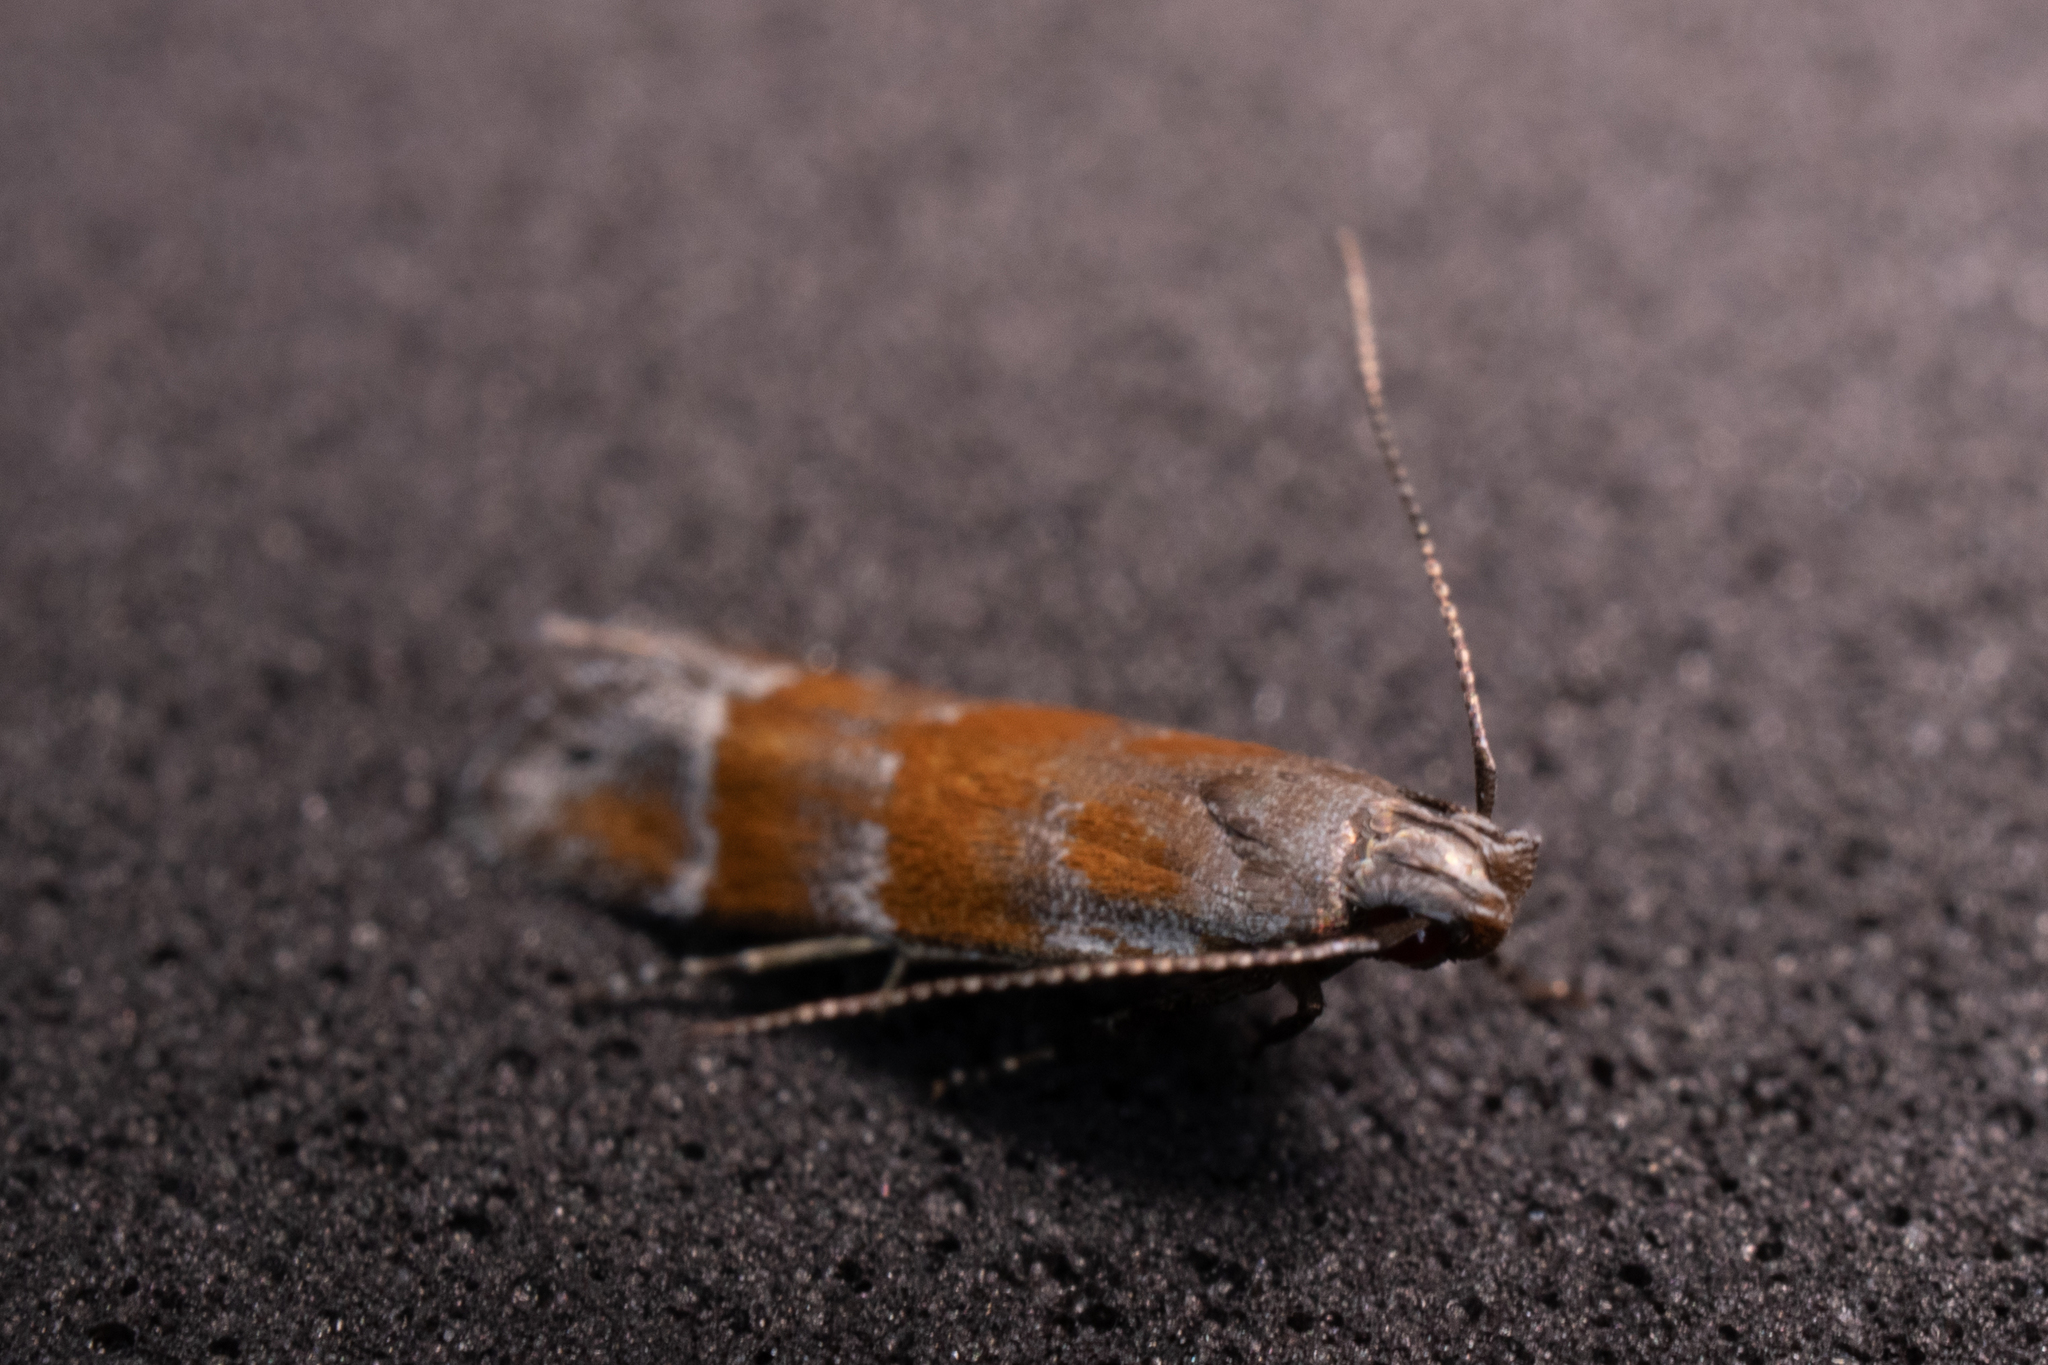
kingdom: Animalia
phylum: Arthropoda
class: Insecta
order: Lepidoptera
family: Gelechiidae
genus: Battaristis
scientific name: Battaristis vittella
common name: Orange stripe-backed moth
